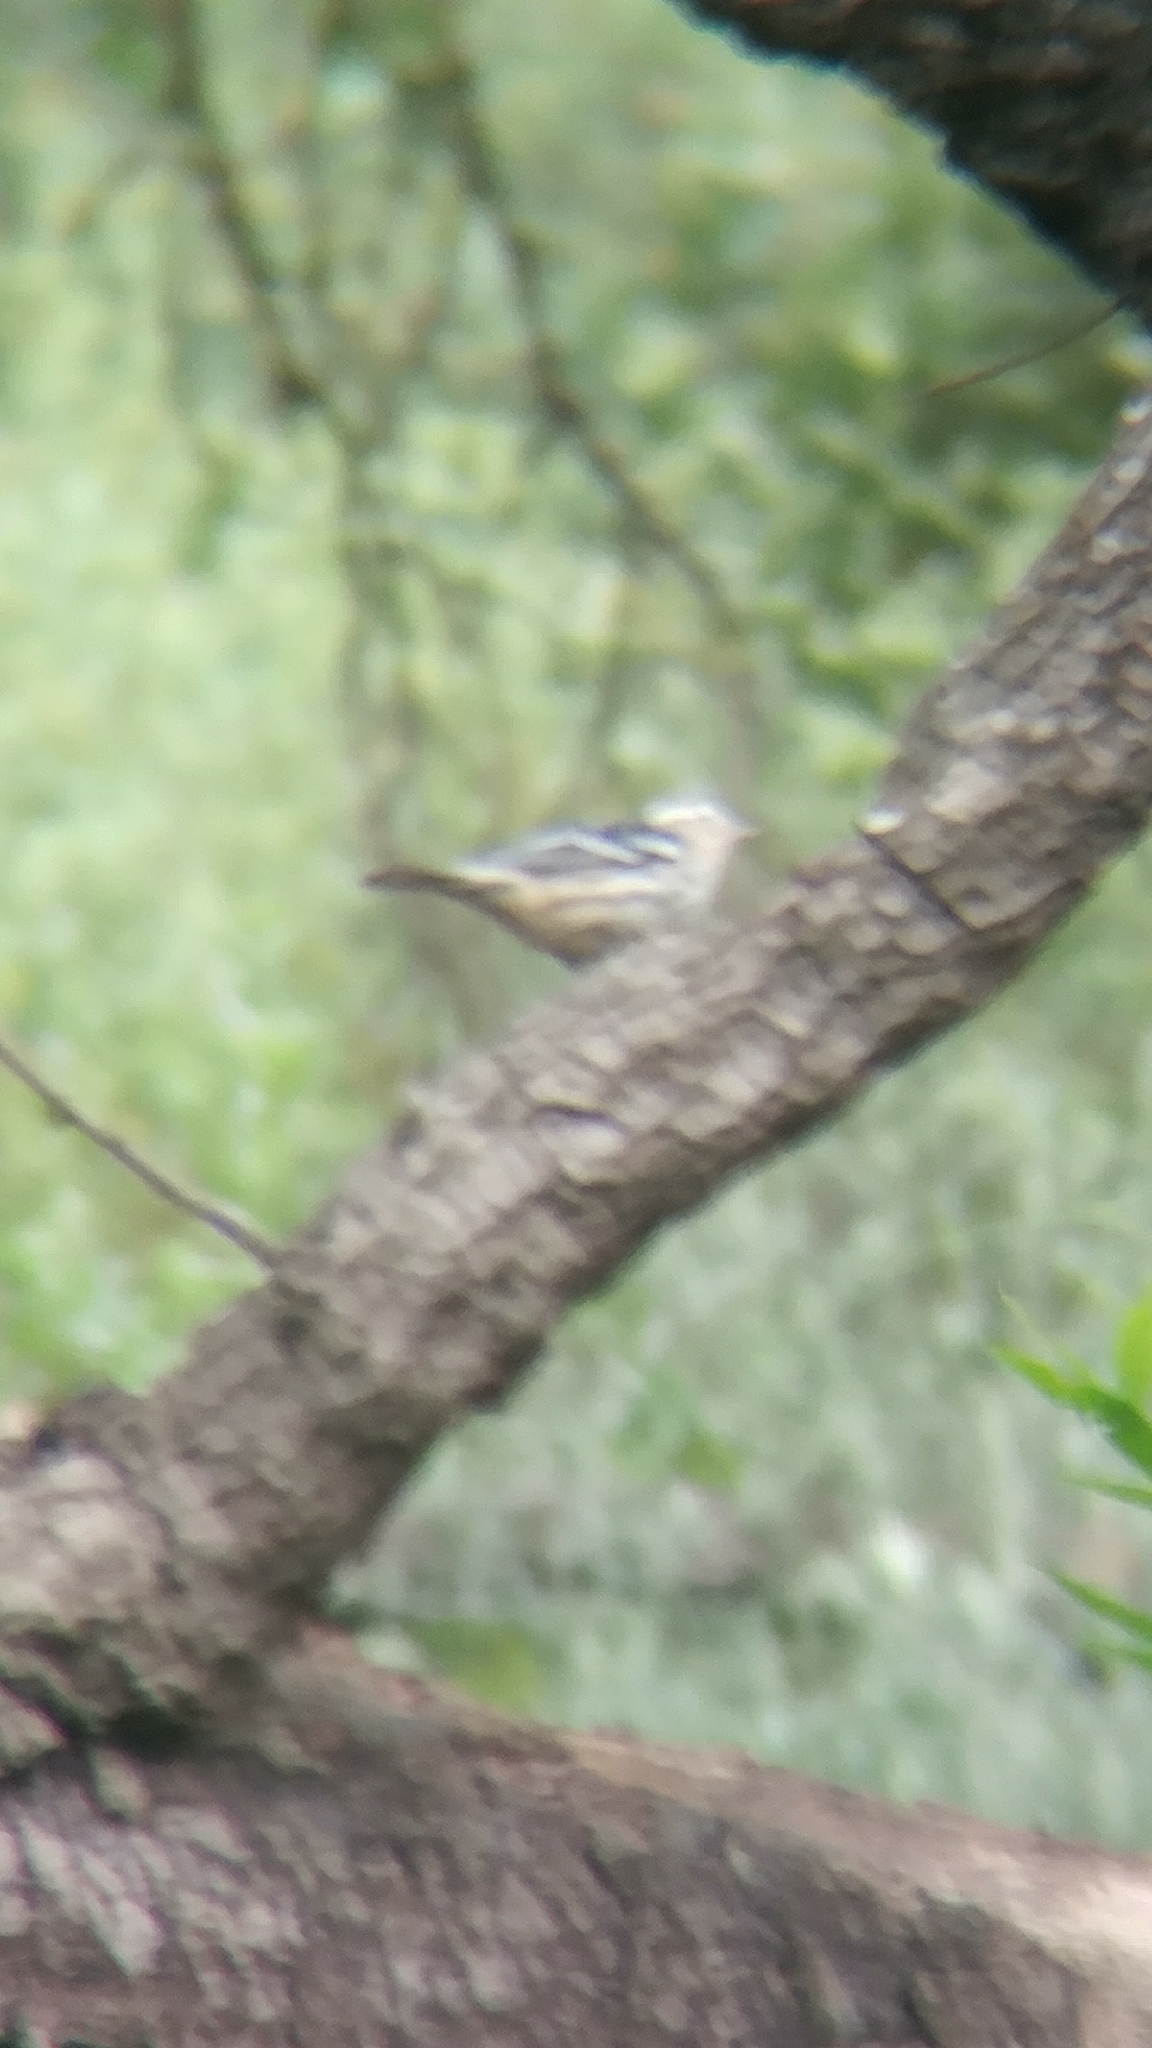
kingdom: Animalia
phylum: Chordata
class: Aves
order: Passeriformes
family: Parulidae
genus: Mniotilta
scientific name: Mniotilta varia
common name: Black-and-white warbler
